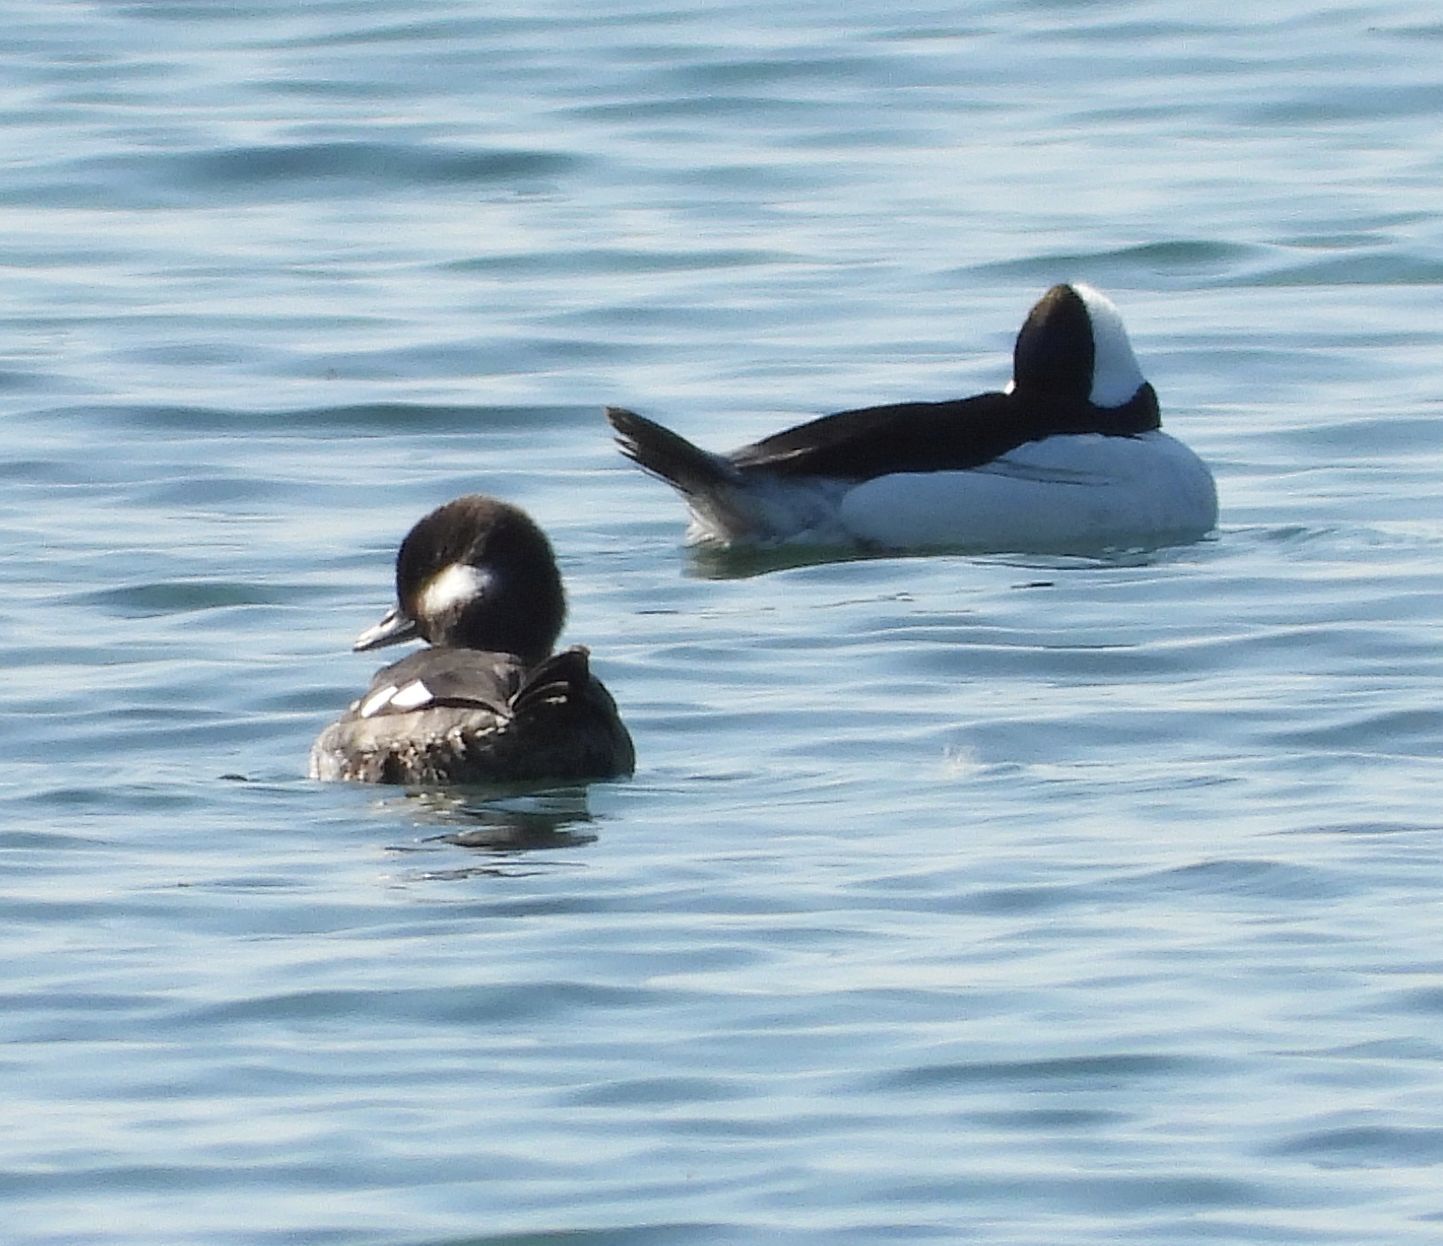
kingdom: Animalia
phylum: Chordata
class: Aves
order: Anseriformes
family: Anatidae
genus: Bucephala
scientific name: Bucephala albeola
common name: Bufflehead
